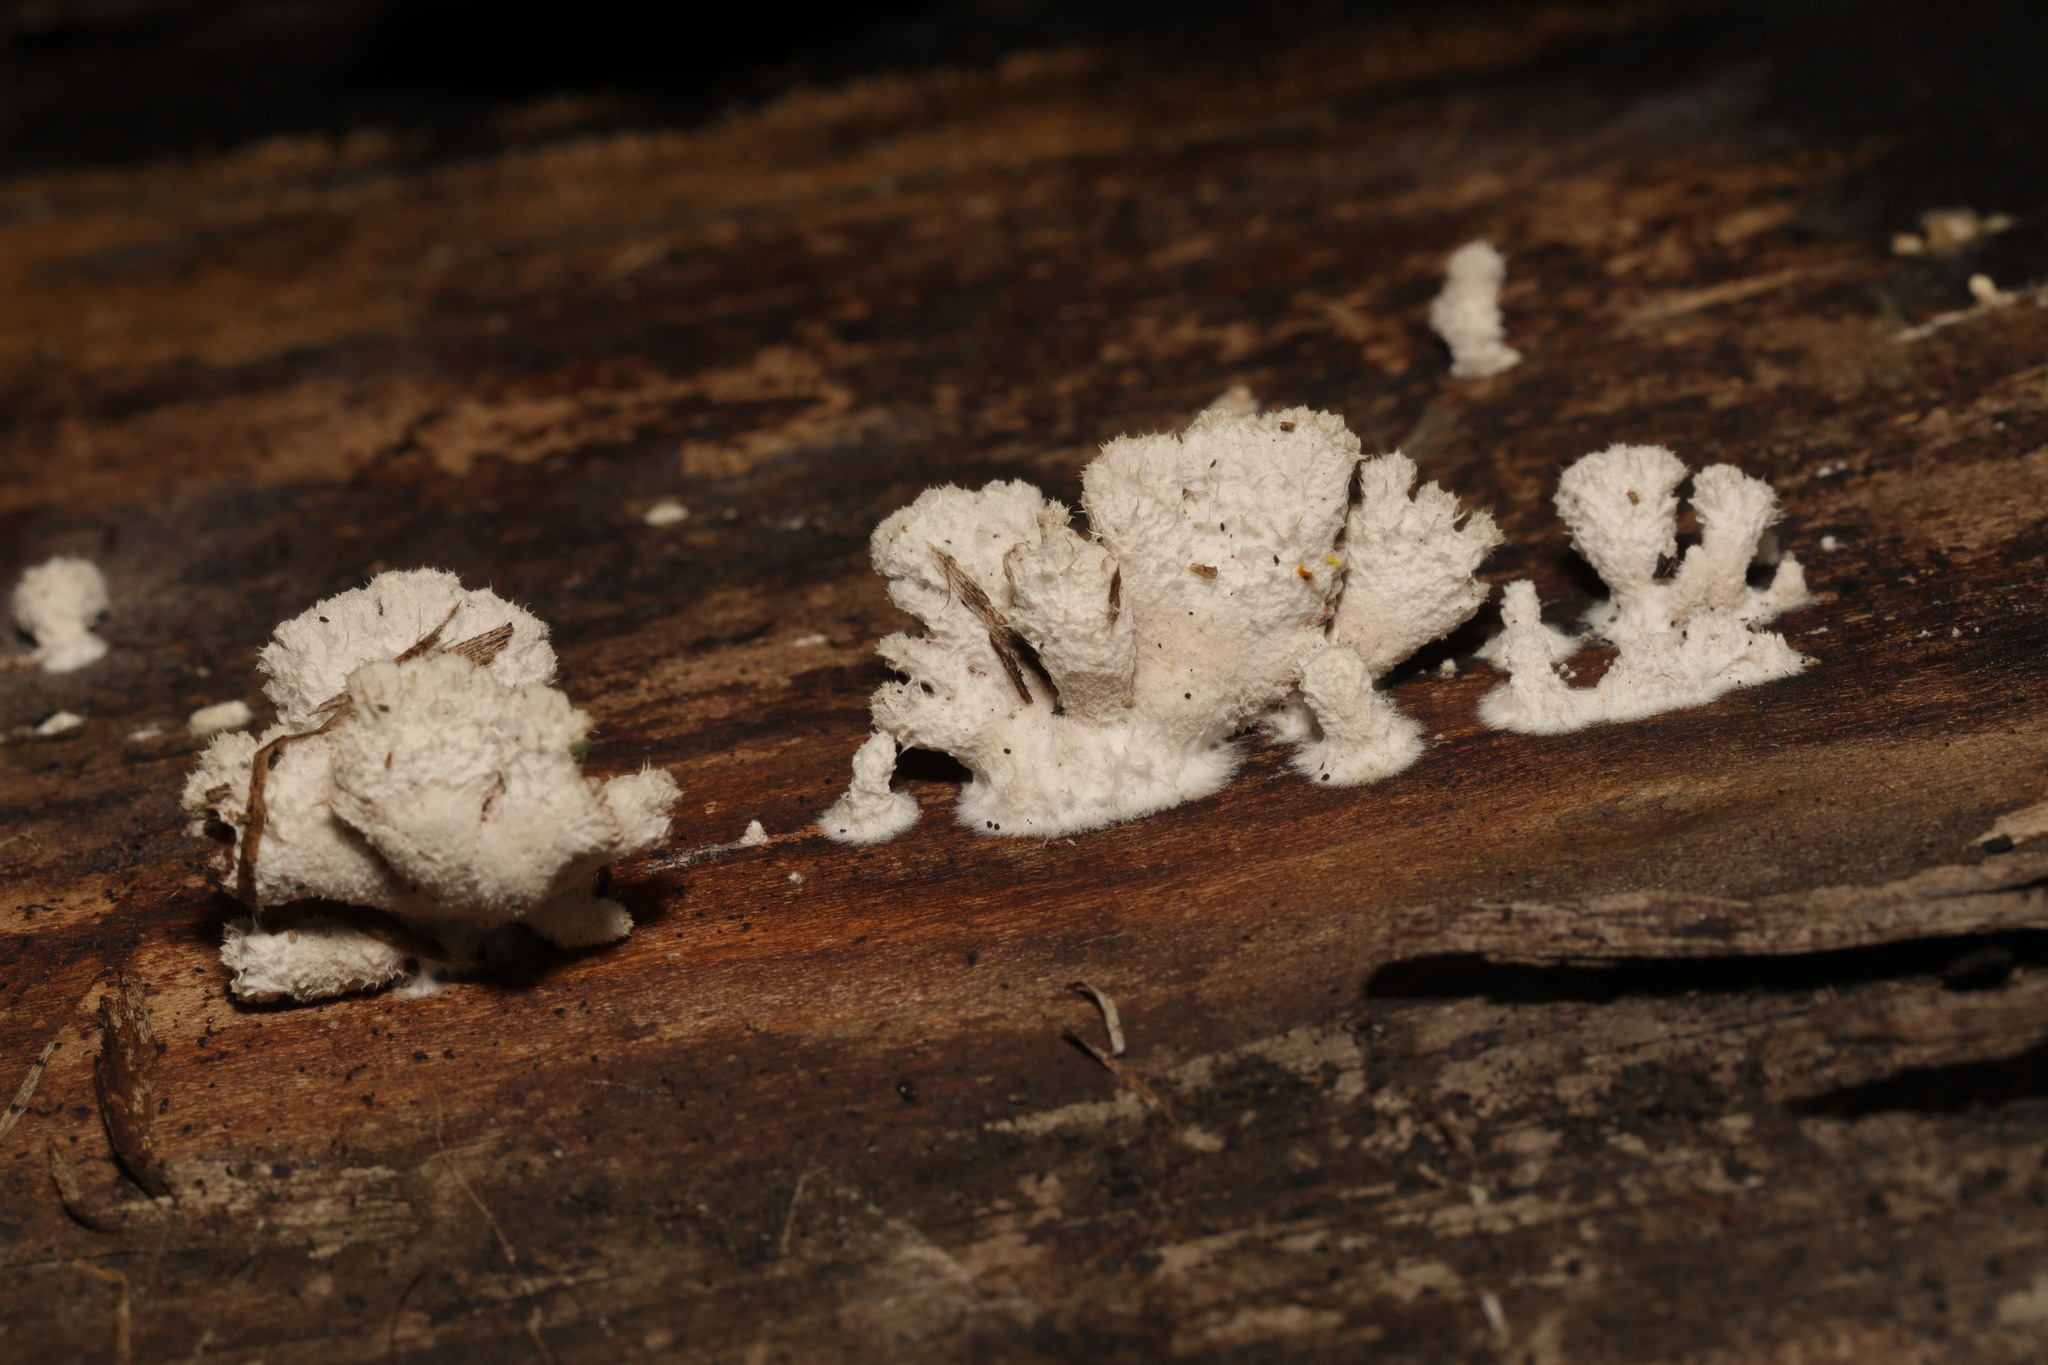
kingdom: Fungi
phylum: Basidiomycota
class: Agaricomycetes
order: Agaricales
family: Schizophyllaceae
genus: Schizophyllum
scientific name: Schizophyllum commune
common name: Common porecrust
